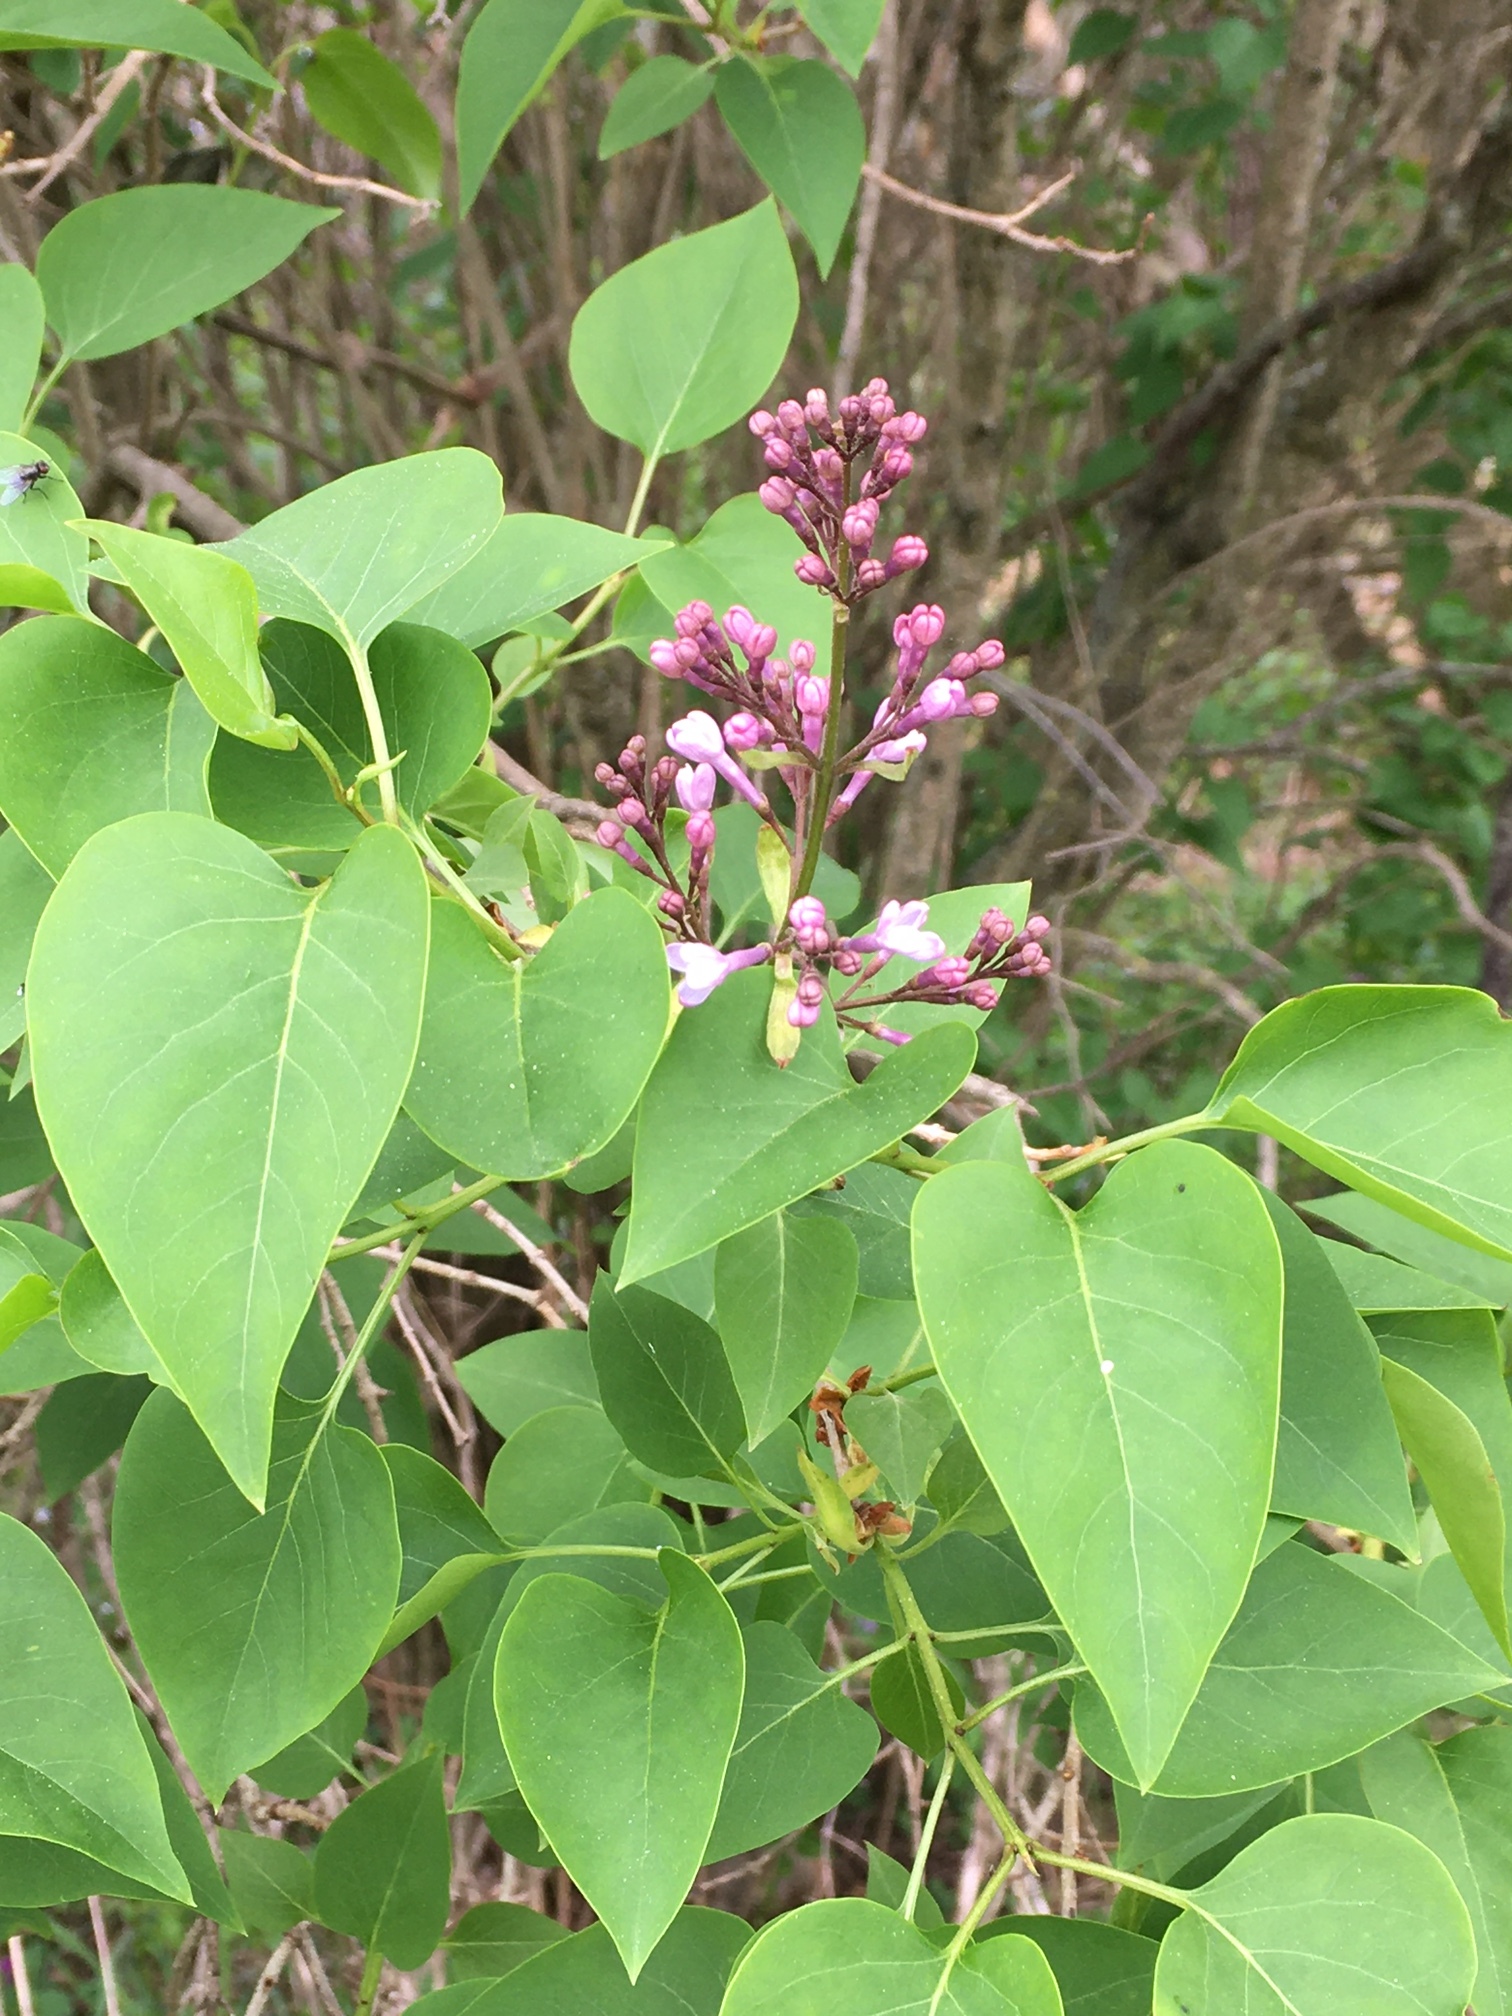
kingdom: Plantae
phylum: Tracheophyta
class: Magnoliopsida
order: Lamiales
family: Oleaceae
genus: Syringa
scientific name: Syringa vulgaris
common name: Common lilac
